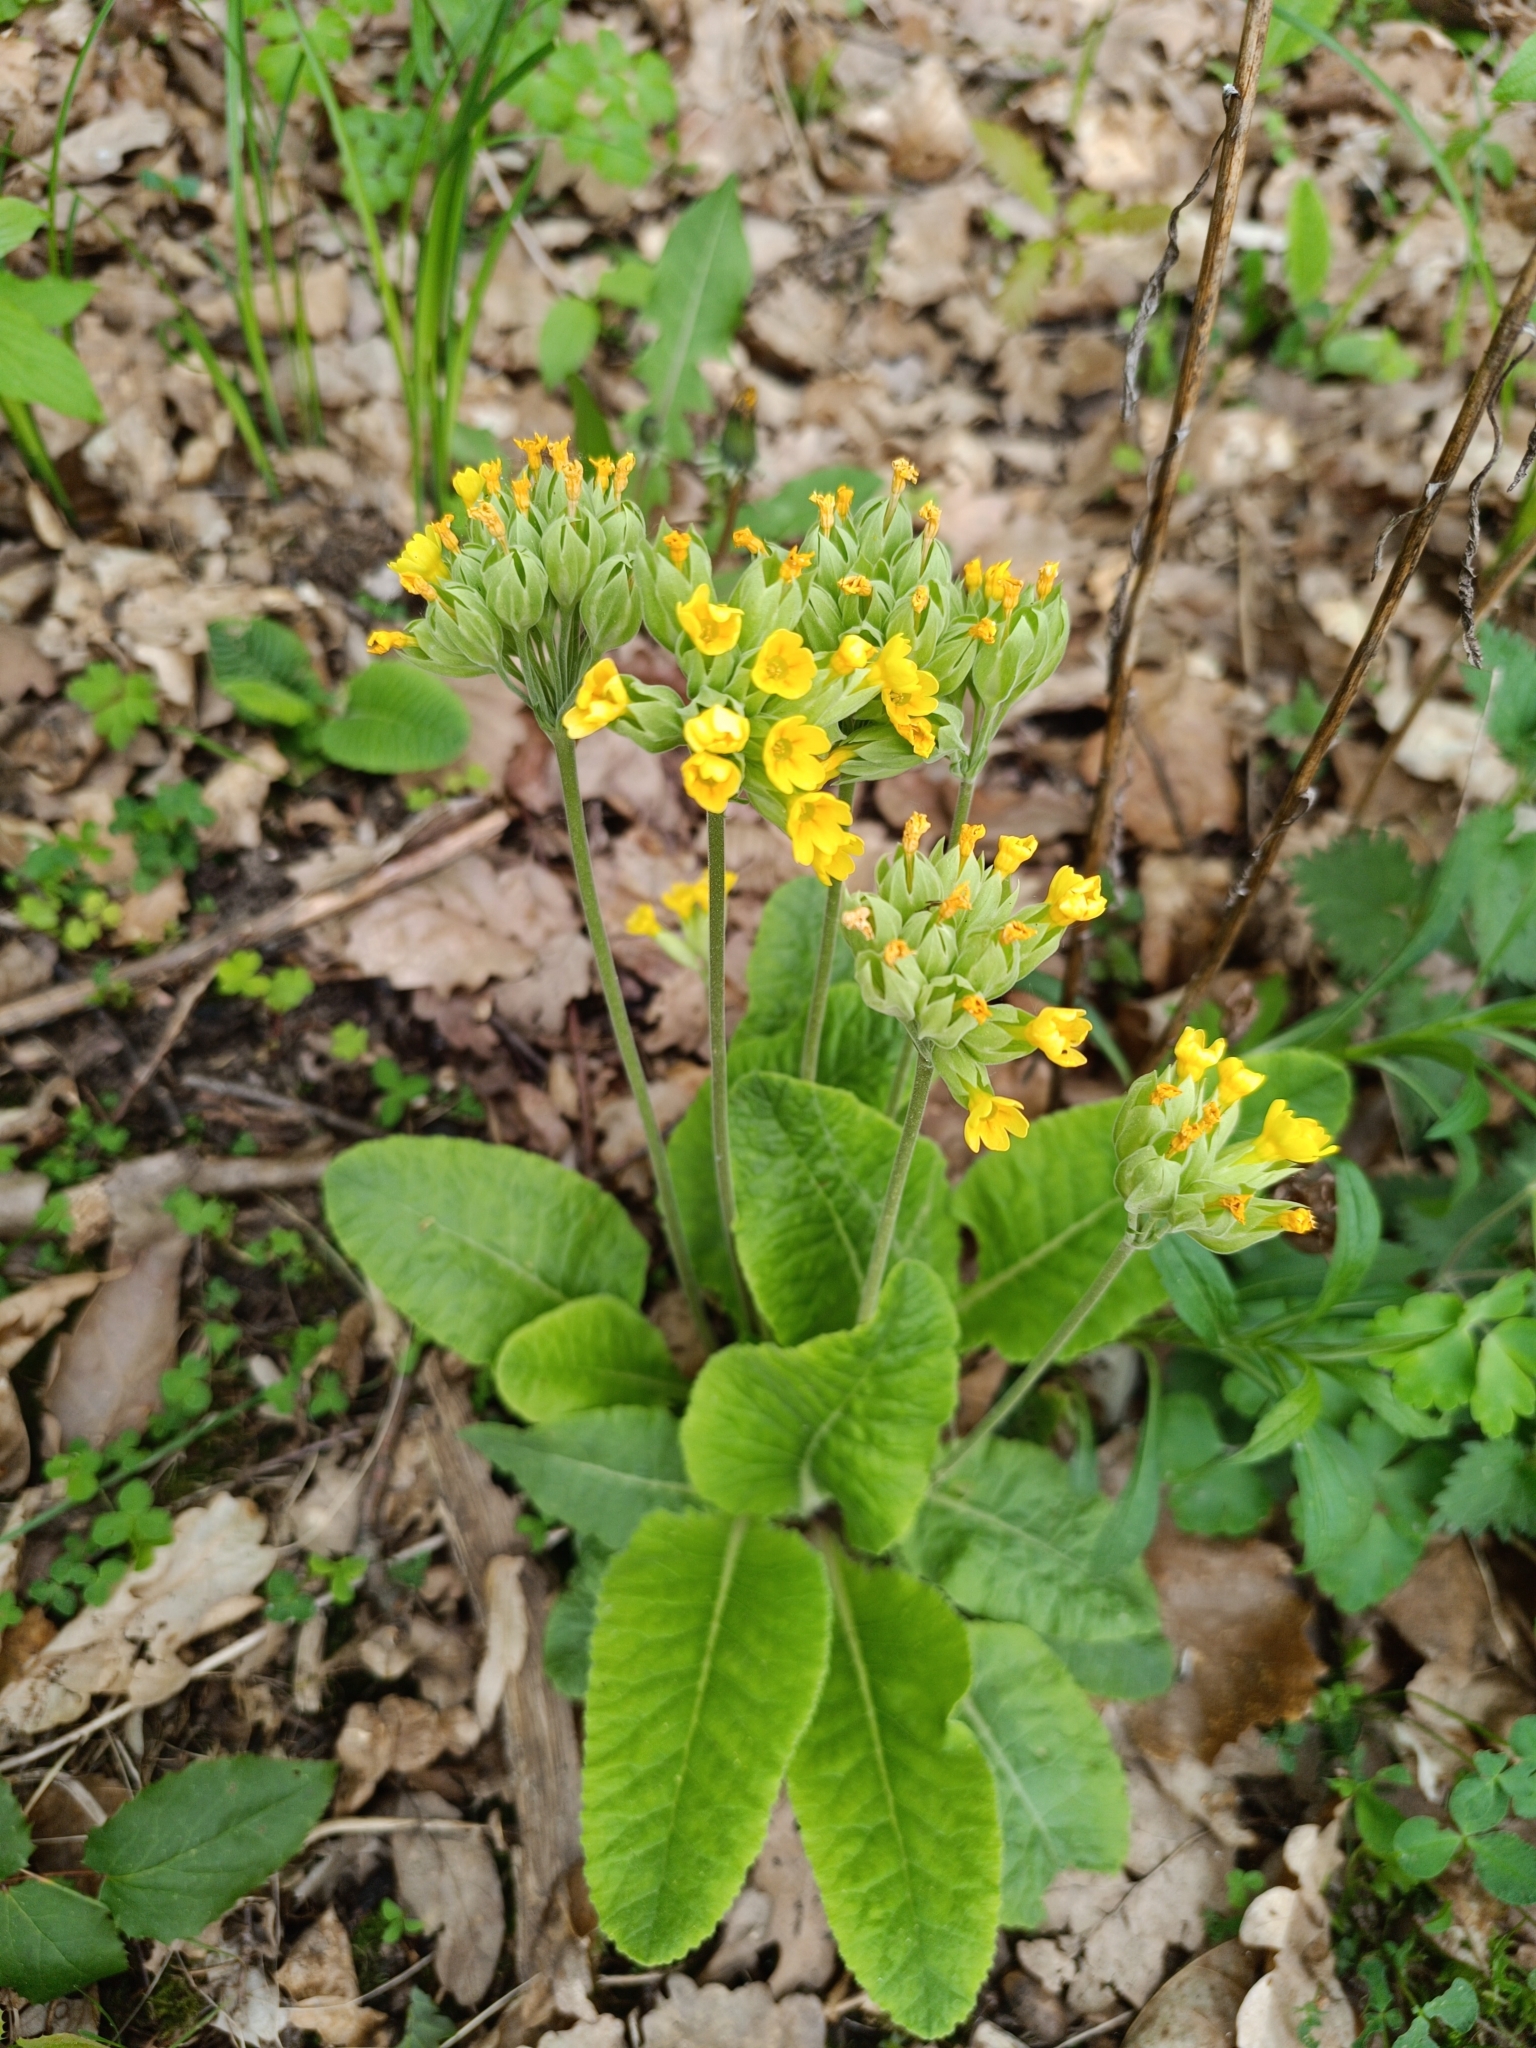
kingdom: Plantae
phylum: Tracheophyta
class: Magnoliopsida
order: Ericales
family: Primulaceae
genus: Primula
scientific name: Primula veris
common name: Cowslip
